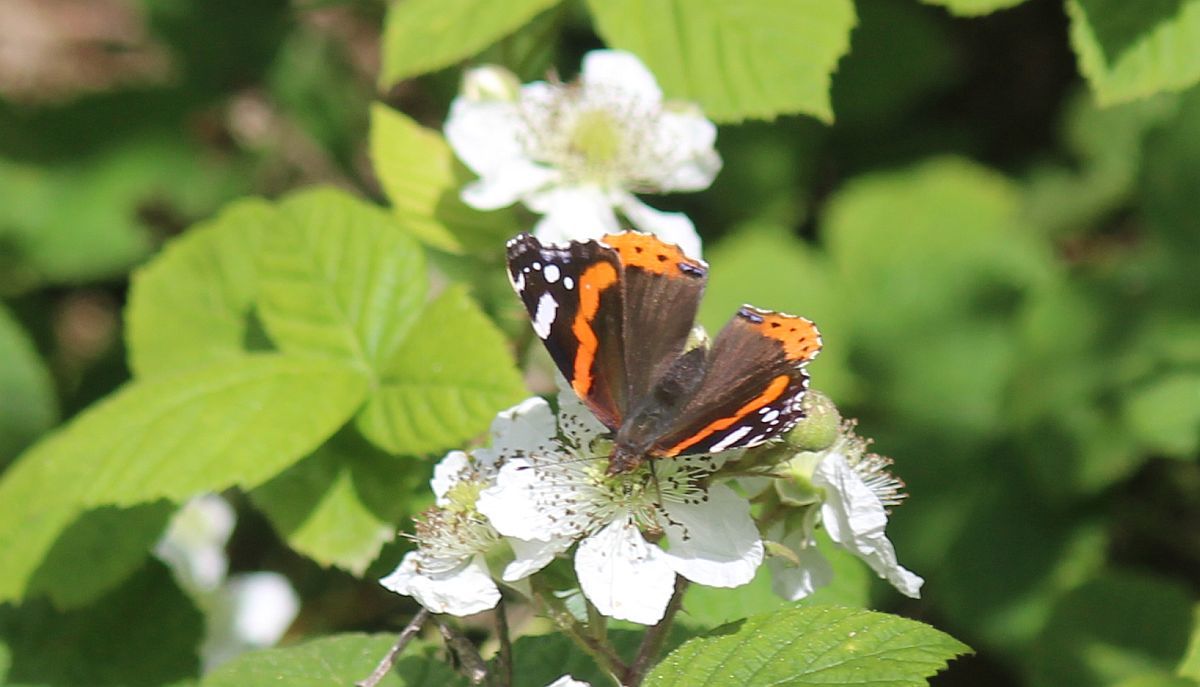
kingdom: Animalia
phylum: Arthropoda
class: Insecta
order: Lepidoptera
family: Nymphalidae
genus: Vanessa
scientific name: Vanessa atalanta
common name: Red admiral
